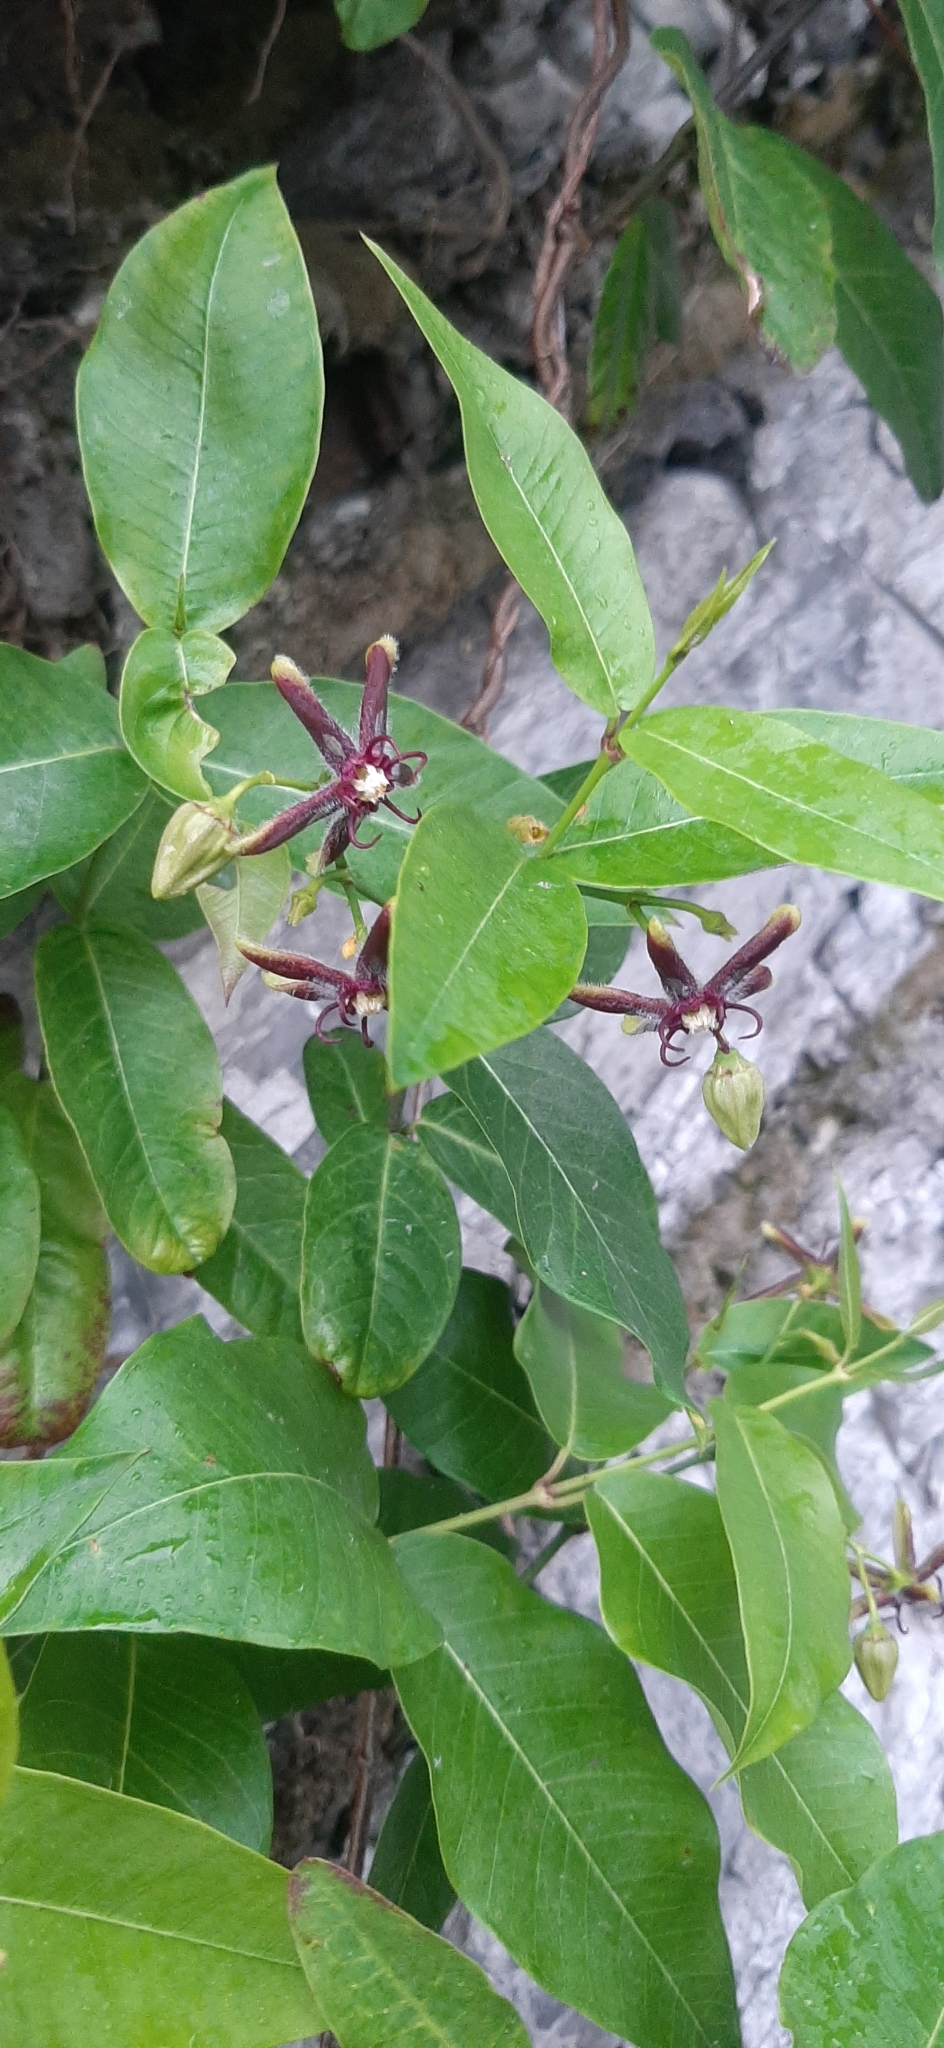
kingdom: Plantae
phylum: Tracheophyta
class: Magnoliopsida
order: Gentianales
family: Apocynaceae
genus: Periploca
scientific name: Periploca graeca
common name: Silkvine
